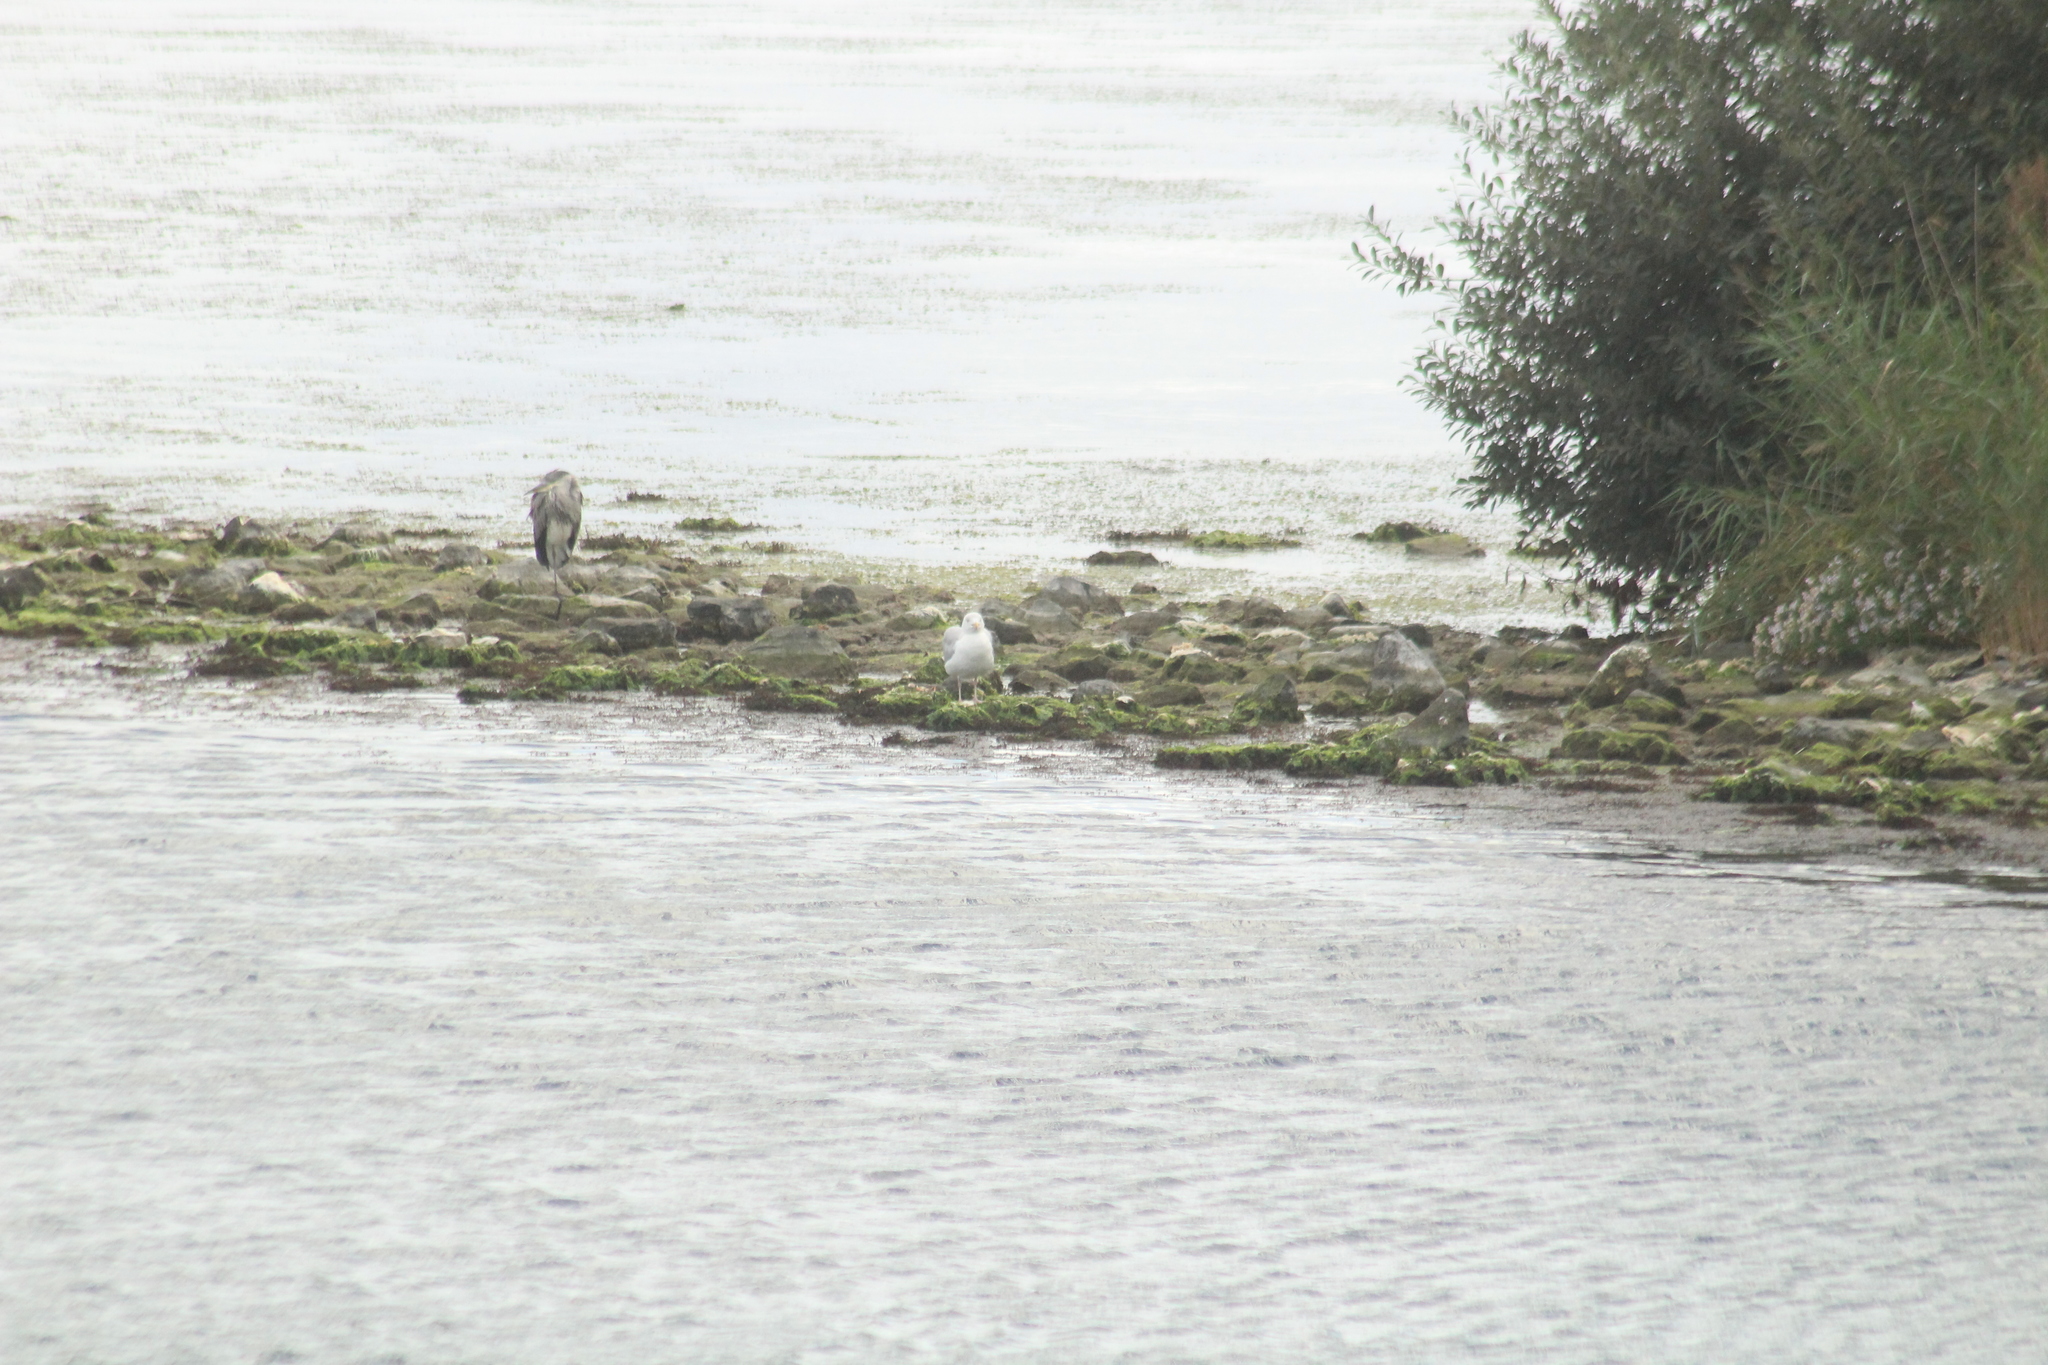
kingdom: Animalia
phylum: Chordata
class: Aves
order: Charadriiformes
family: Laridae
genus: Larus
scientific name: Larus argentatus
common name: Herring gull
